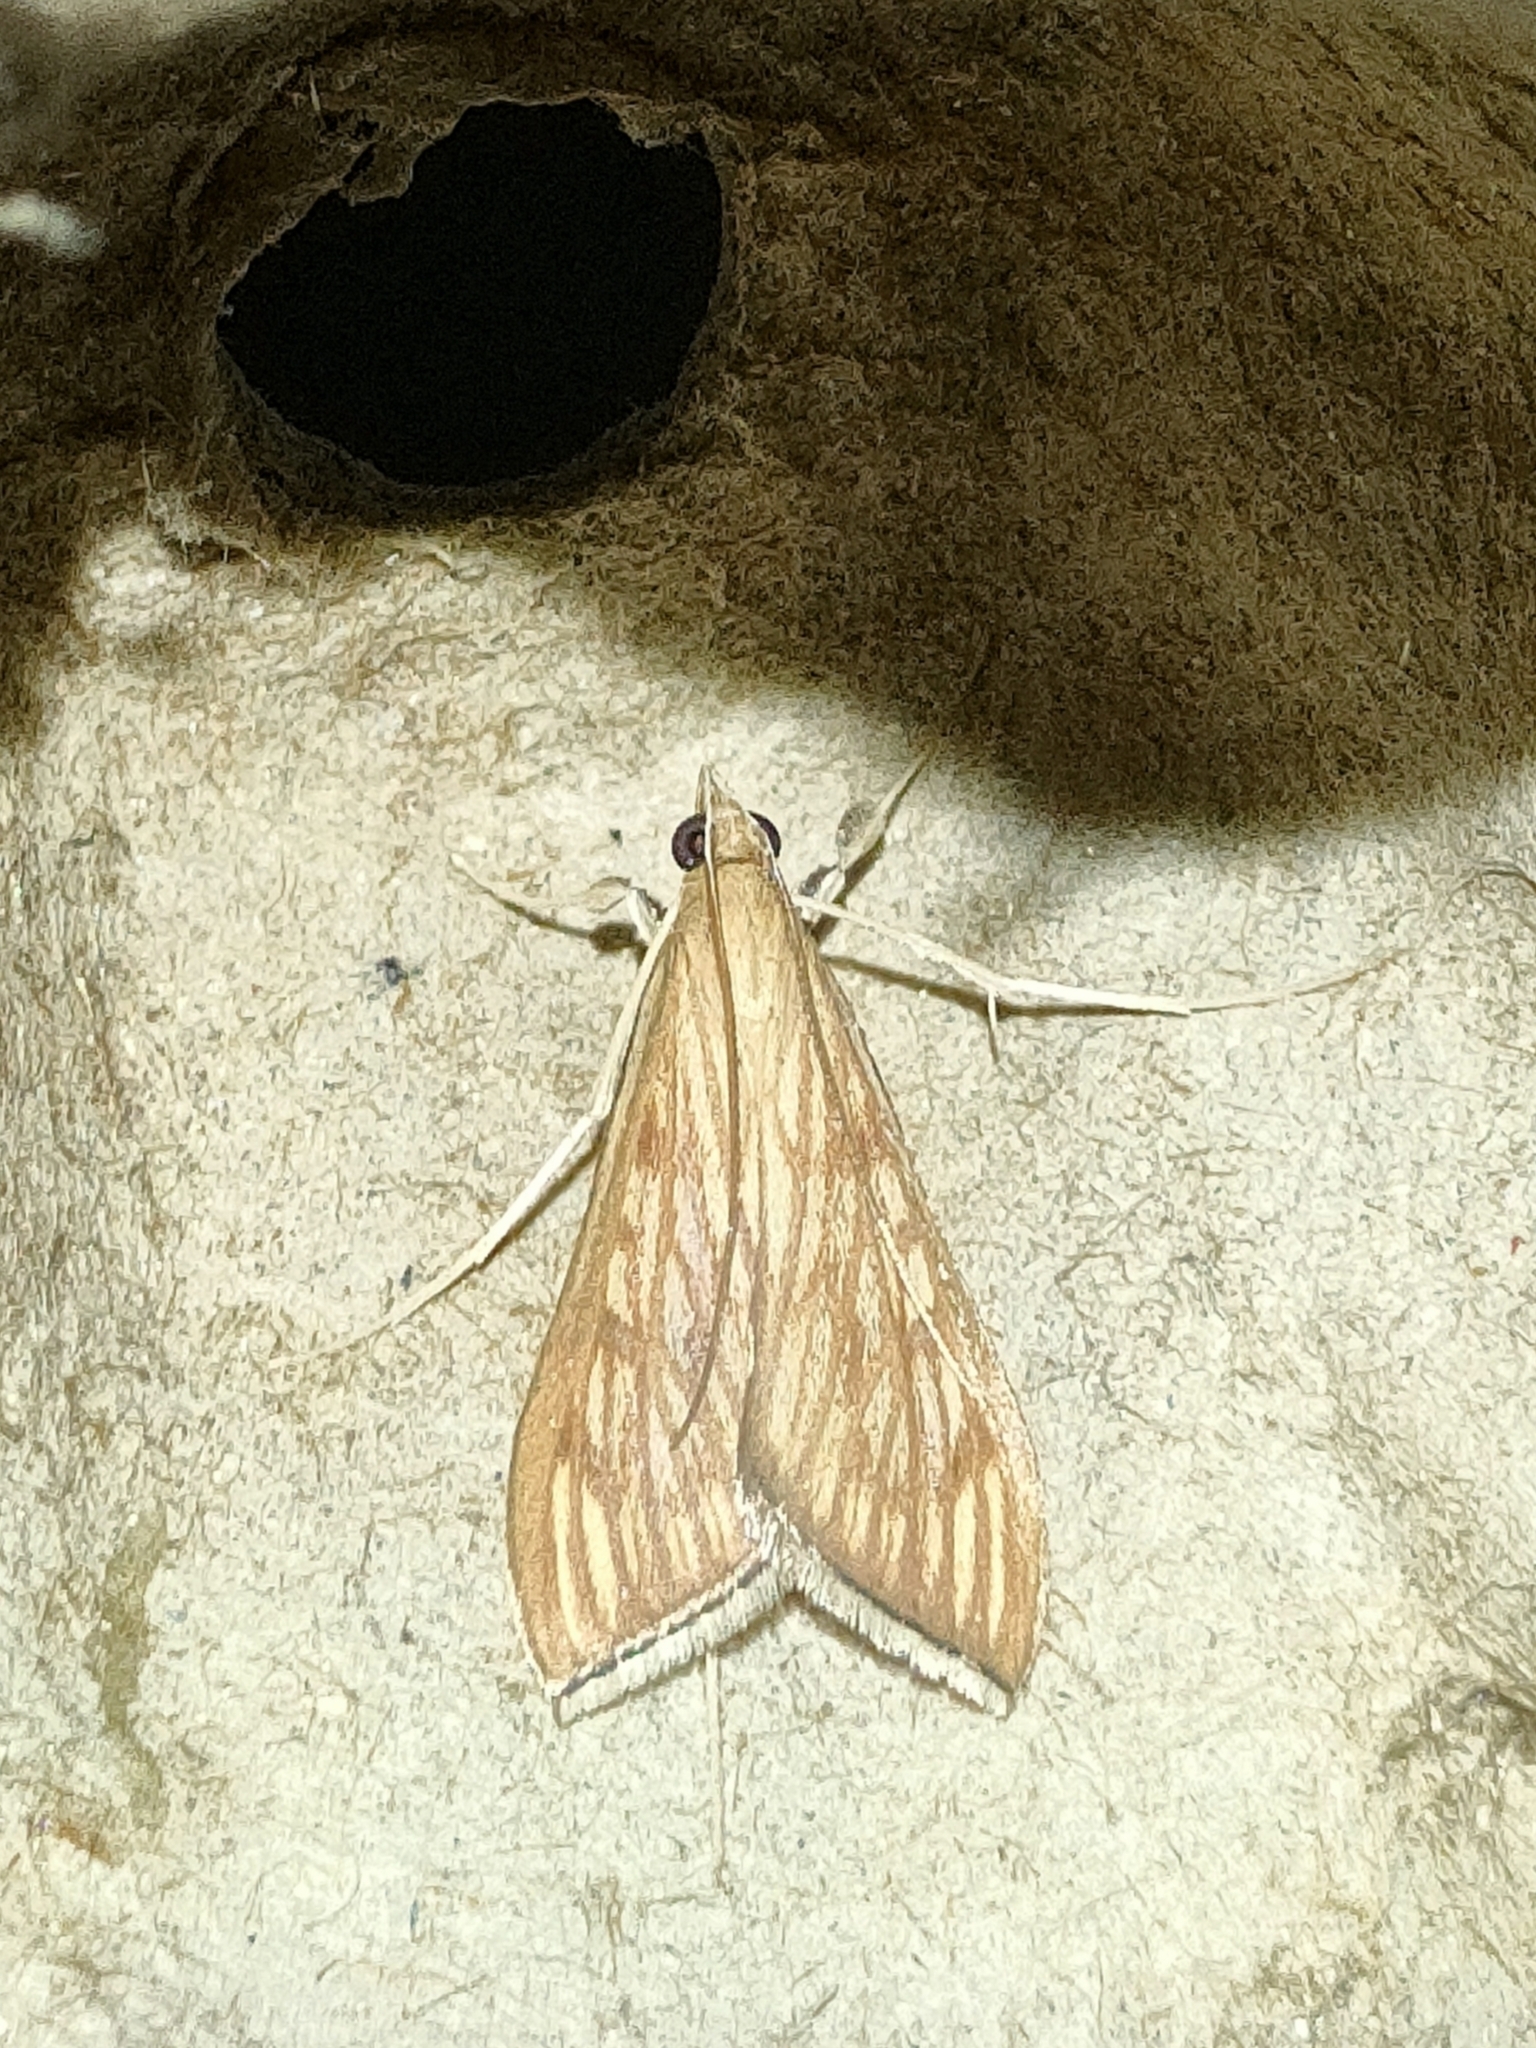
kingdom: Animalia
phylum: Arthropoda
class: Insecta
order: Lepidoptera
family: Crambidae
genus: Antigastra
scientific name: Antigastra catalaunalis
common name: Spanish dot
